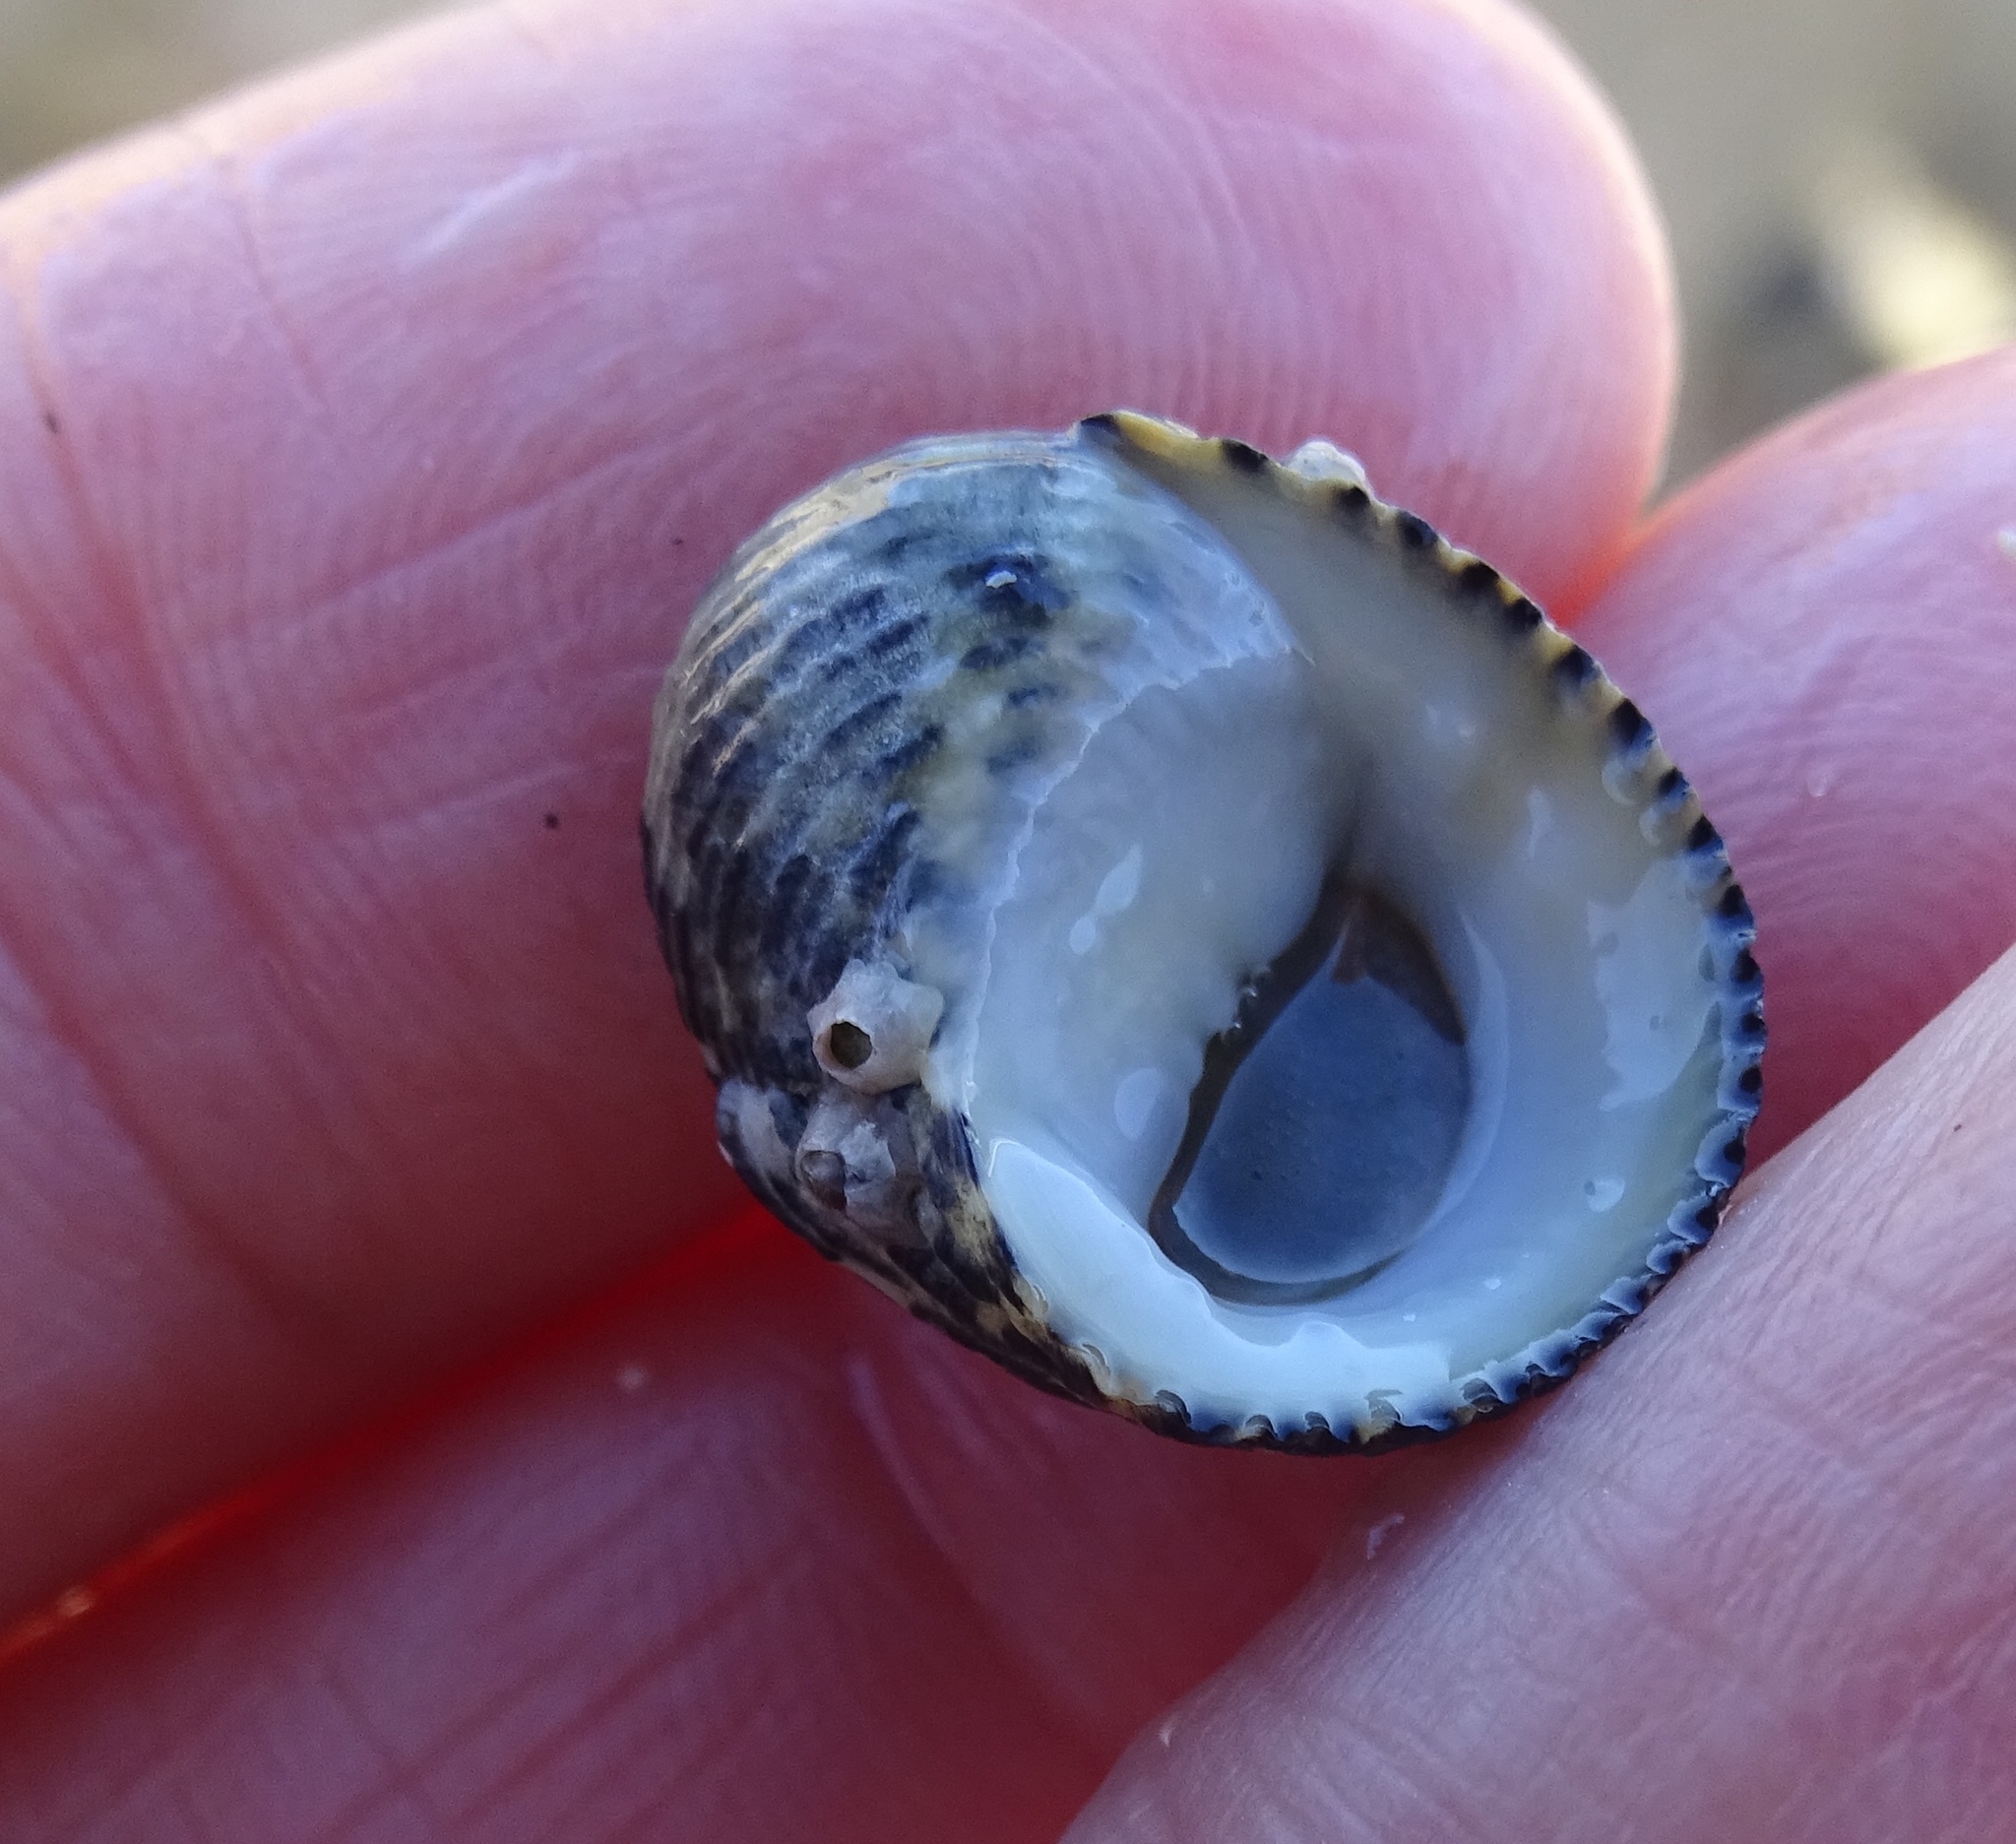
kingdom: Animalia
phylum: Mollusca
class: Gastropoda
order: Cycloneritida
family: Neritidae
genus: Nerita
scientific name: Nerita tessellata
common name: Checkered nerite
